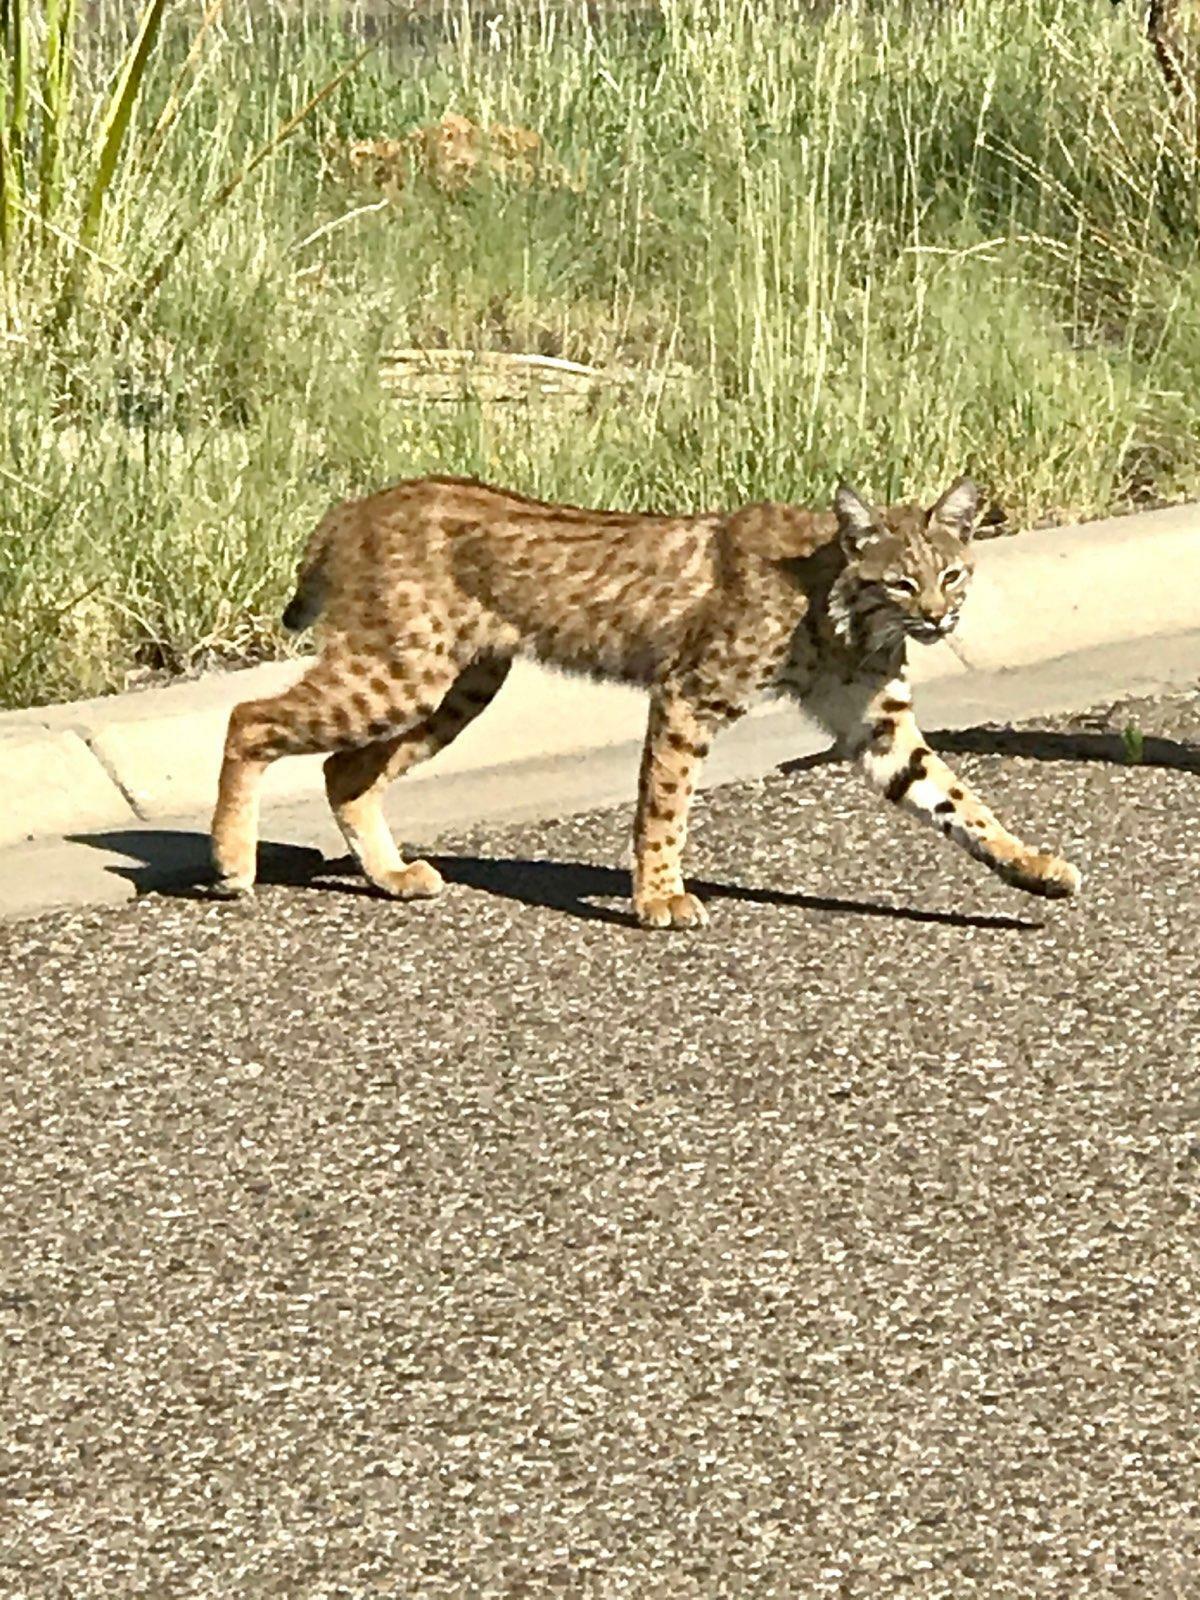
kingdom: Animalia
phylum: Chordata
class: Mammalia
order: Carnivora
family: Felidae
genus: Lynx
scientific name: Lynx rufus
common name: Bobcat
